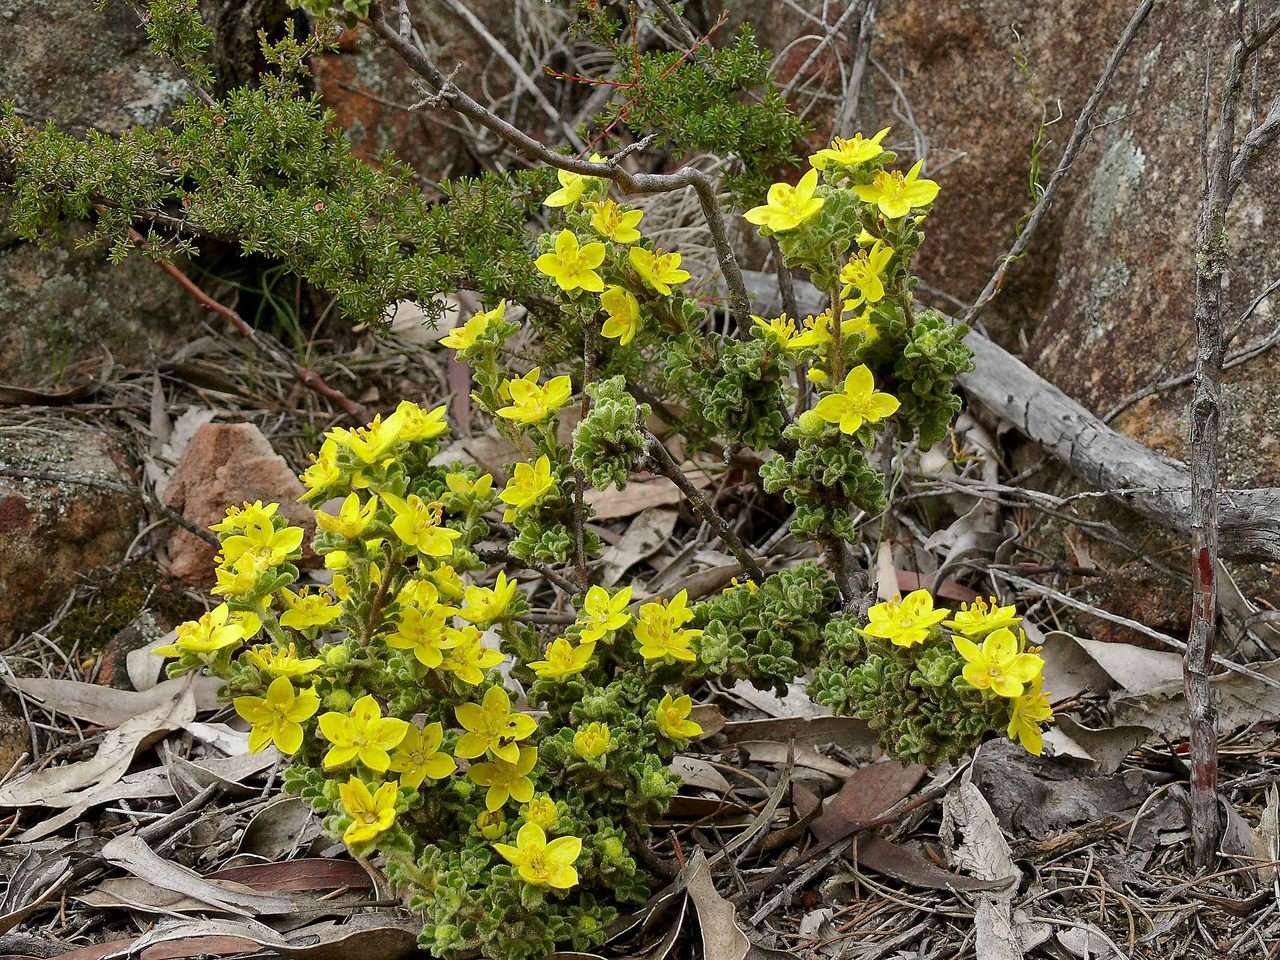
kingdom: Plantae
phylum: Tracheophyta
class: Magnoliopsida
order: Sapindales
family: Rutaceae
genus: Asterolasia
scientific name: Asterolasia phebalioides
